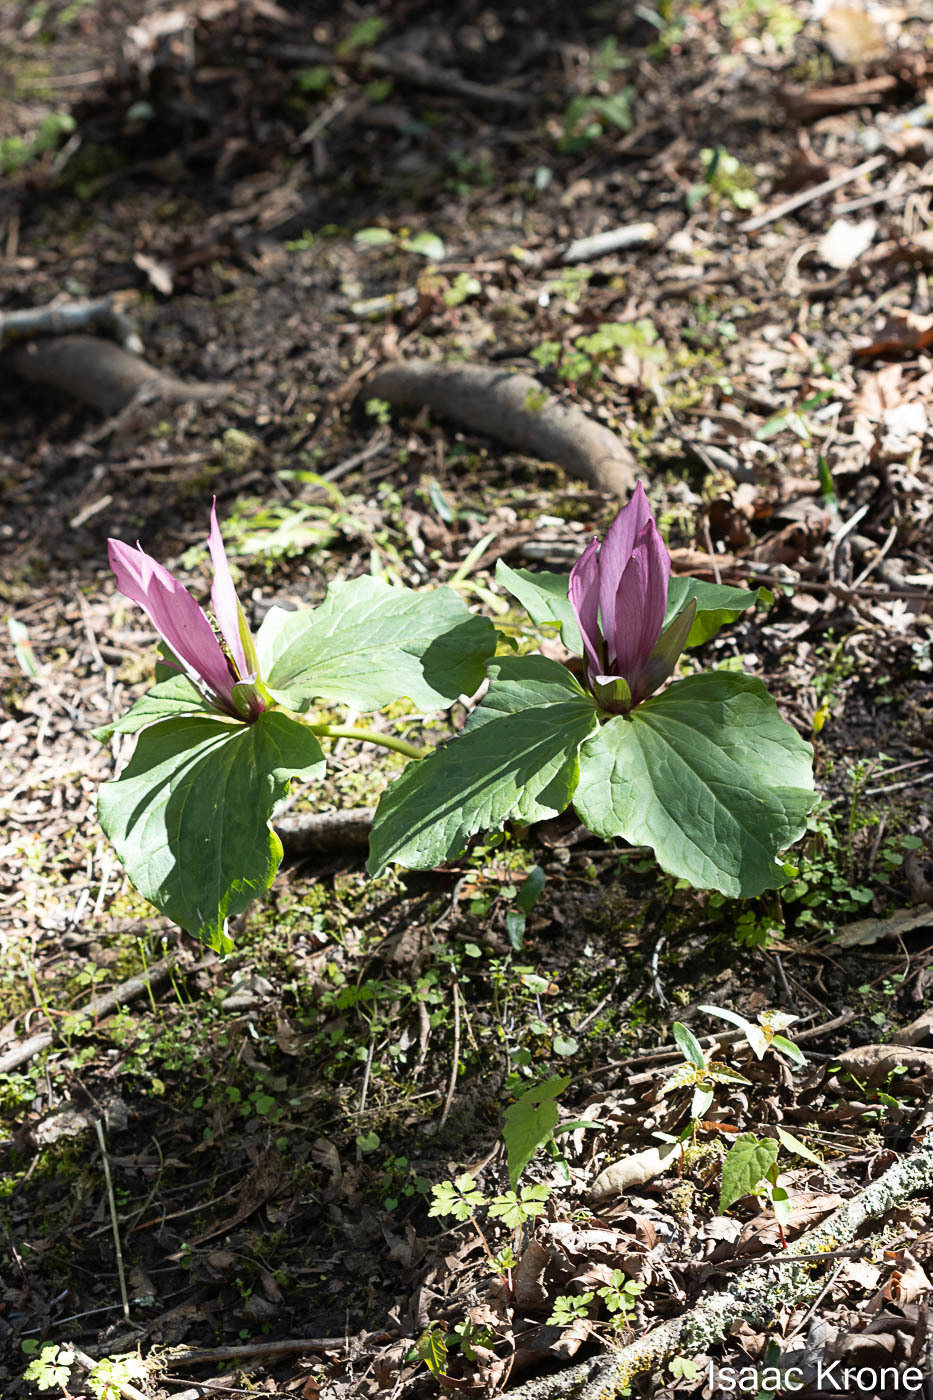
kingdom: Plantae
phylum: Tracheophyta
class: Liliopsida
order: Liliales
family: Melanthiaceae
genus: Trillium
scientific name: Trillium chloropetalum
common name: Giant trillium
